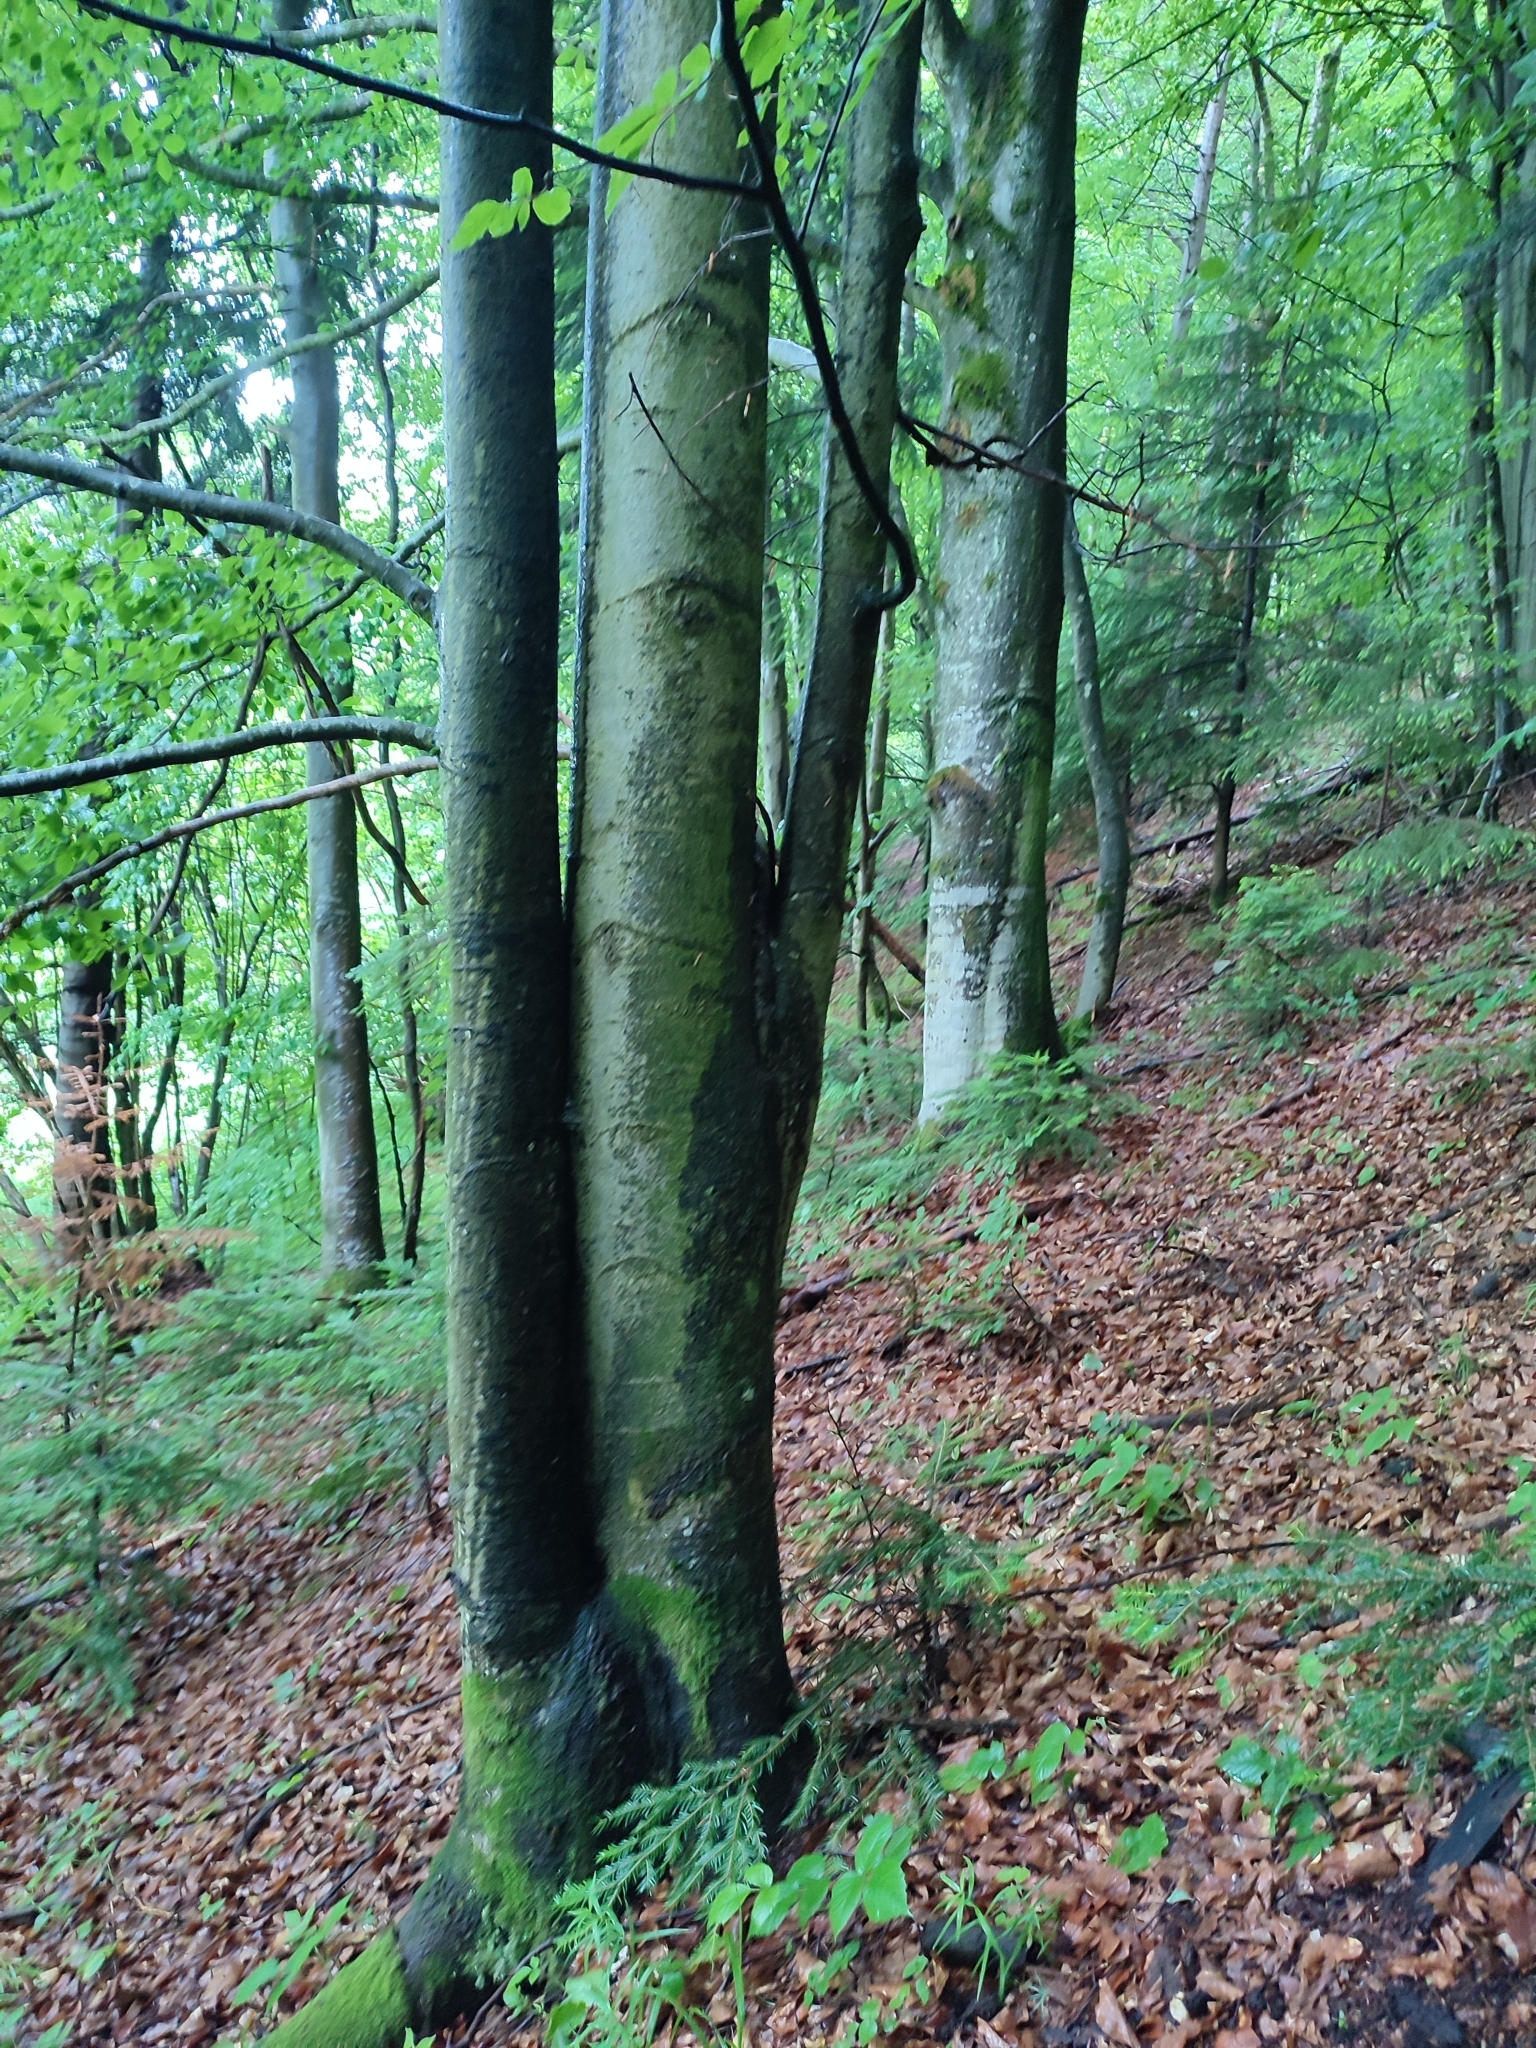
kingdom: Plantae
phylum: Tracheophyta
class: Magnoliopsida
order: Fagales
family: Fagaceae
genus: Fagus
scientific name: Fagus sylvatica
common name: Beech
